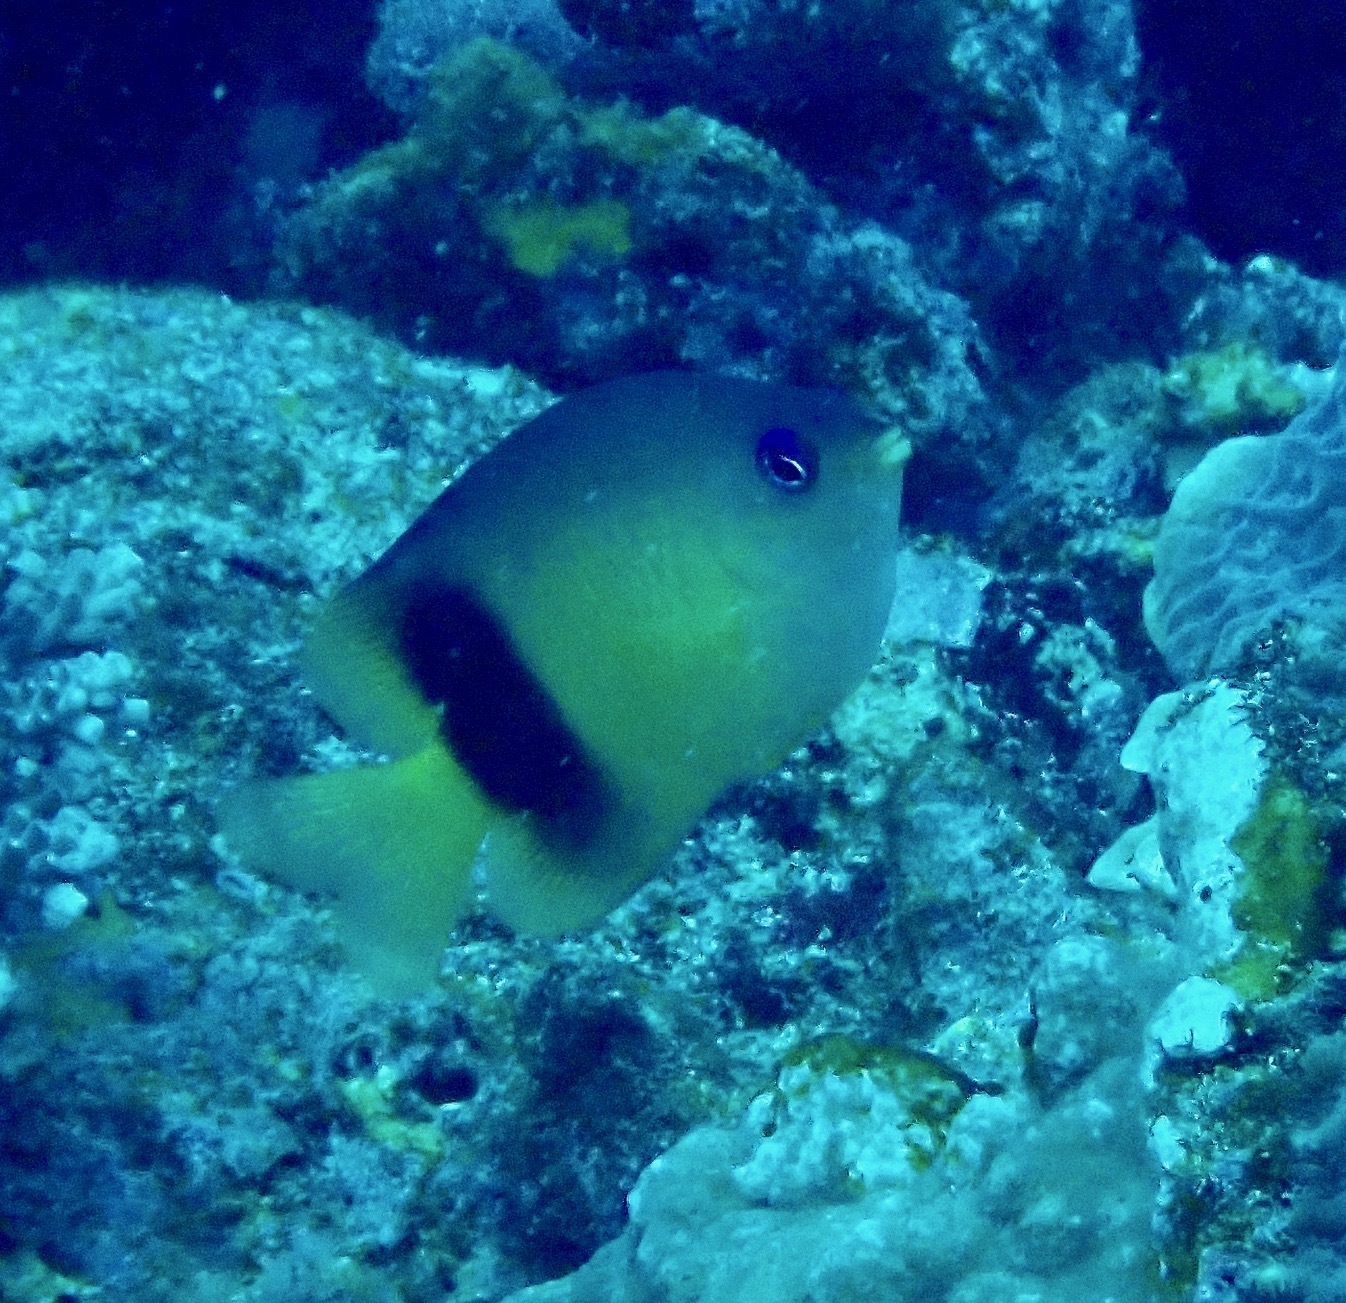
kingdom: Animalia
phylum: Chordata
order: Perciformes
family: Pomacentridae
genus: Plectroglyphidodon
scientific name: Plectroglyphidodon johnstonianus
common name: Johnston damsel
